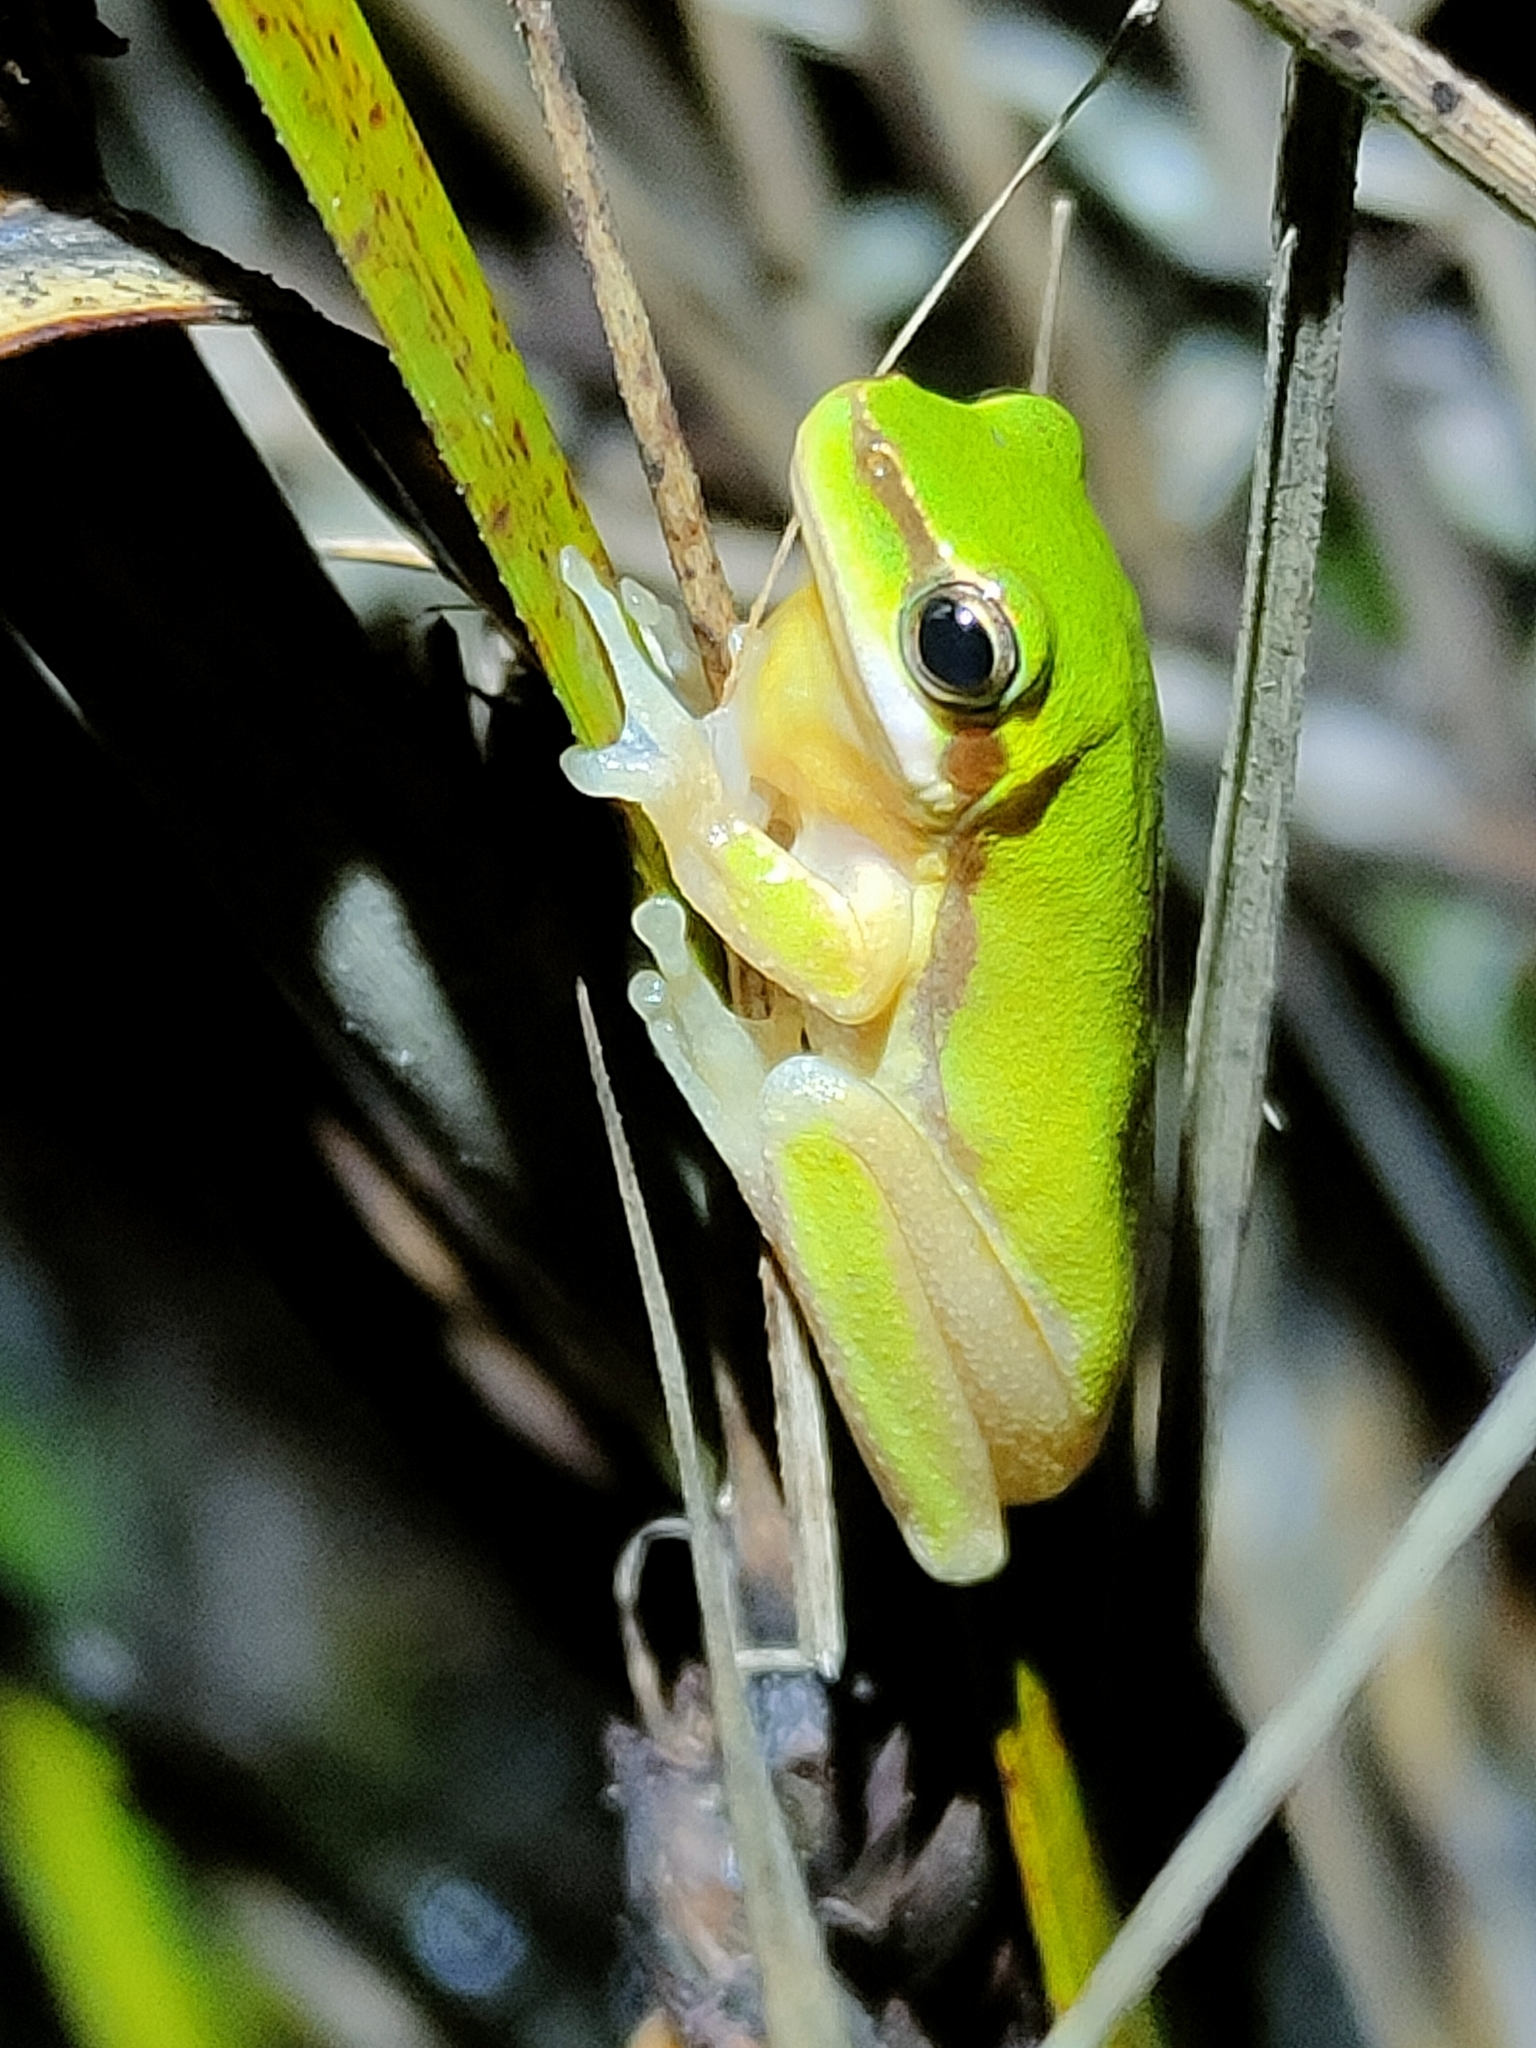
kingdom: Animalia
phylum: Chordata
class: Amphibia
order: Anura
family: Pelodryadidae
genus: Litoria
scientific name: Litoria fallax
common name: Eastern dwarf treefrog
